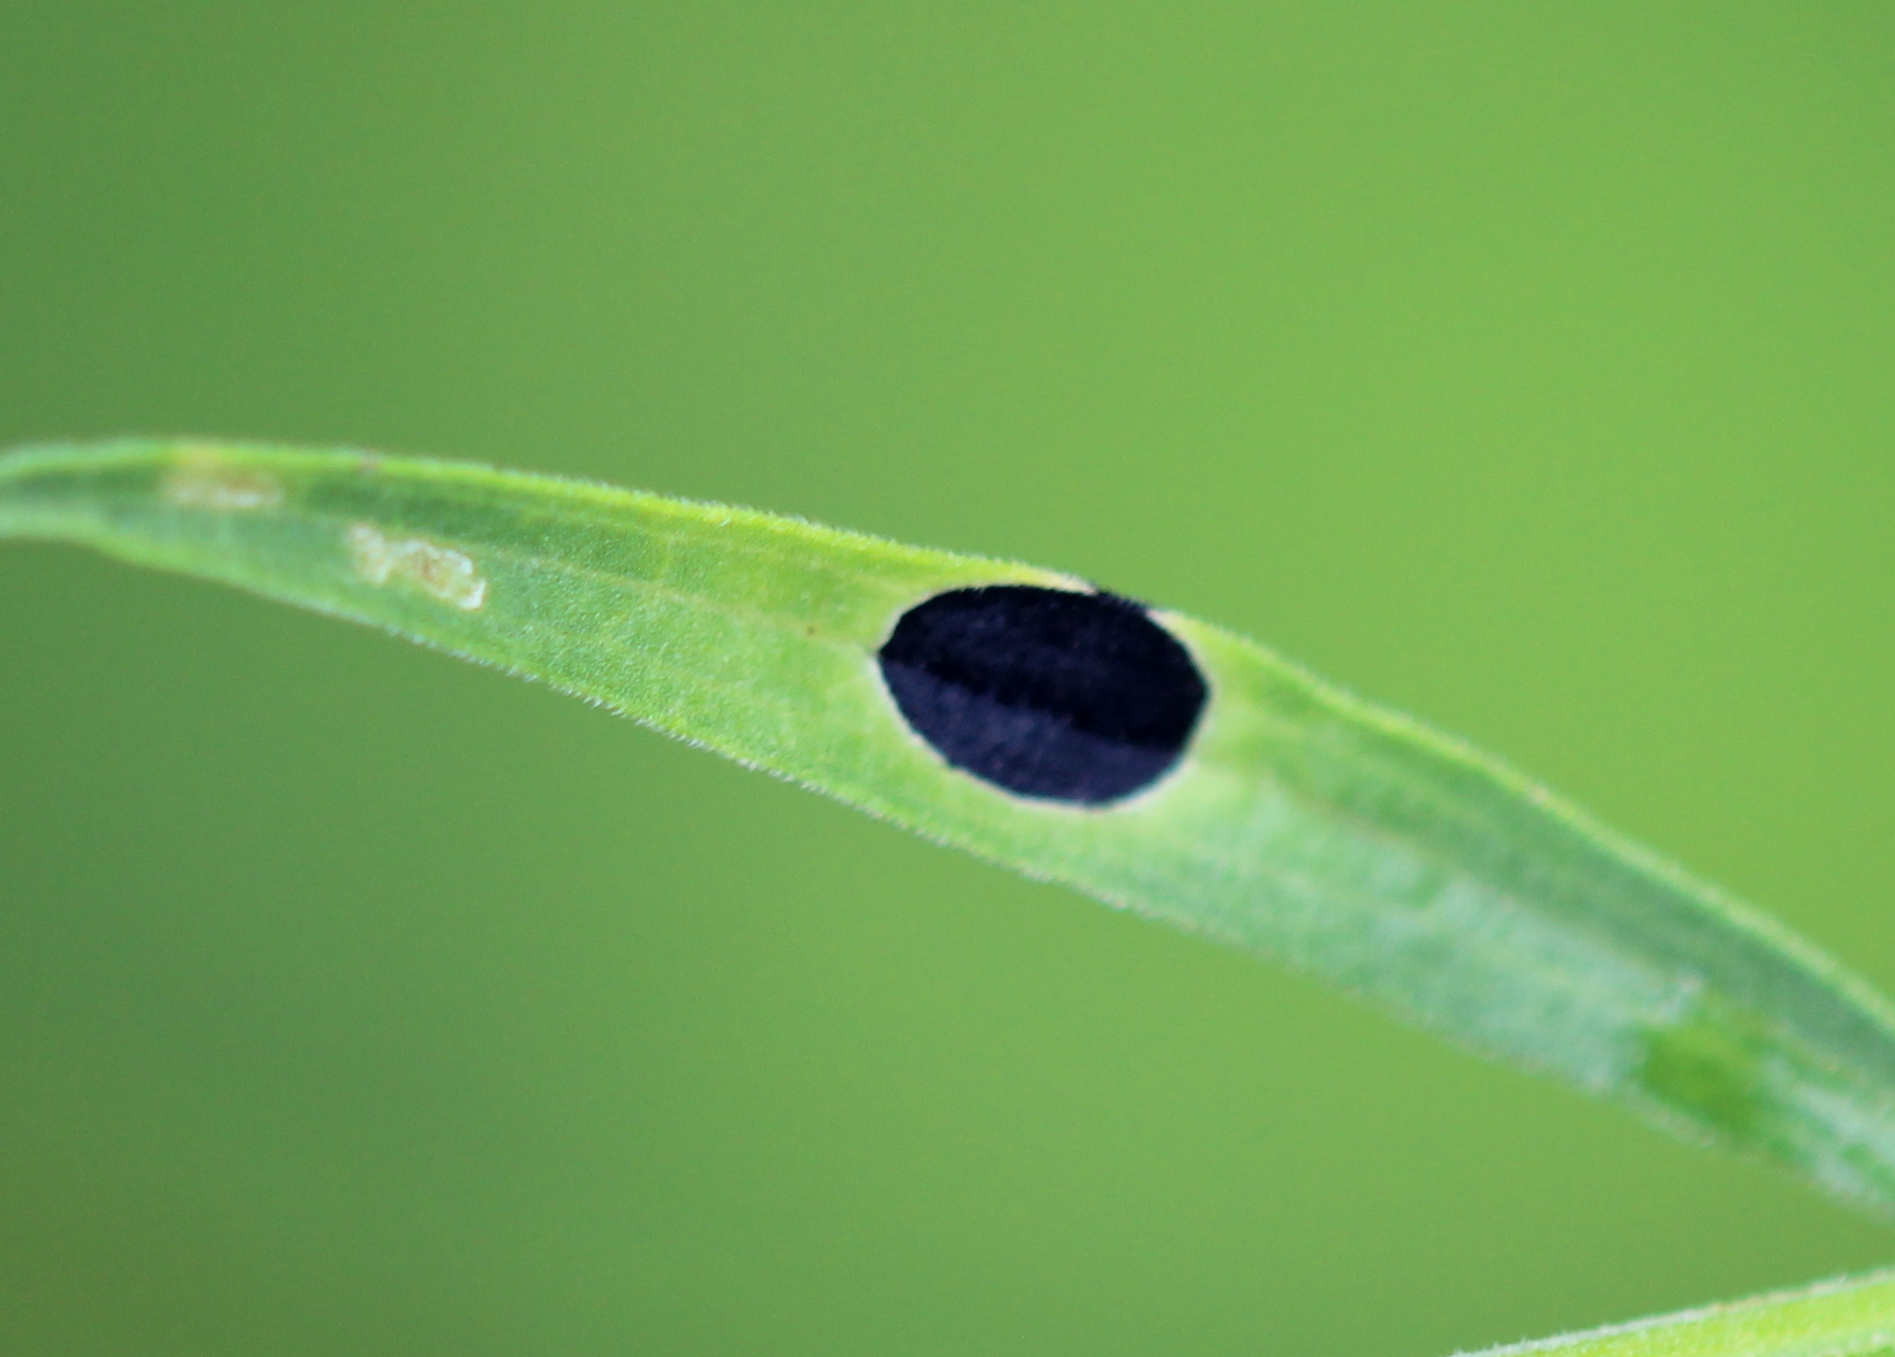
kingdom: Animalia
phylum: Arthropoda
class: Insecta
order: Diptera
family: Cecidomyiidae
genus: Asteromyia
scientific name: Asteromyia euthamiae
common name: Euthamia leaf gall midge
